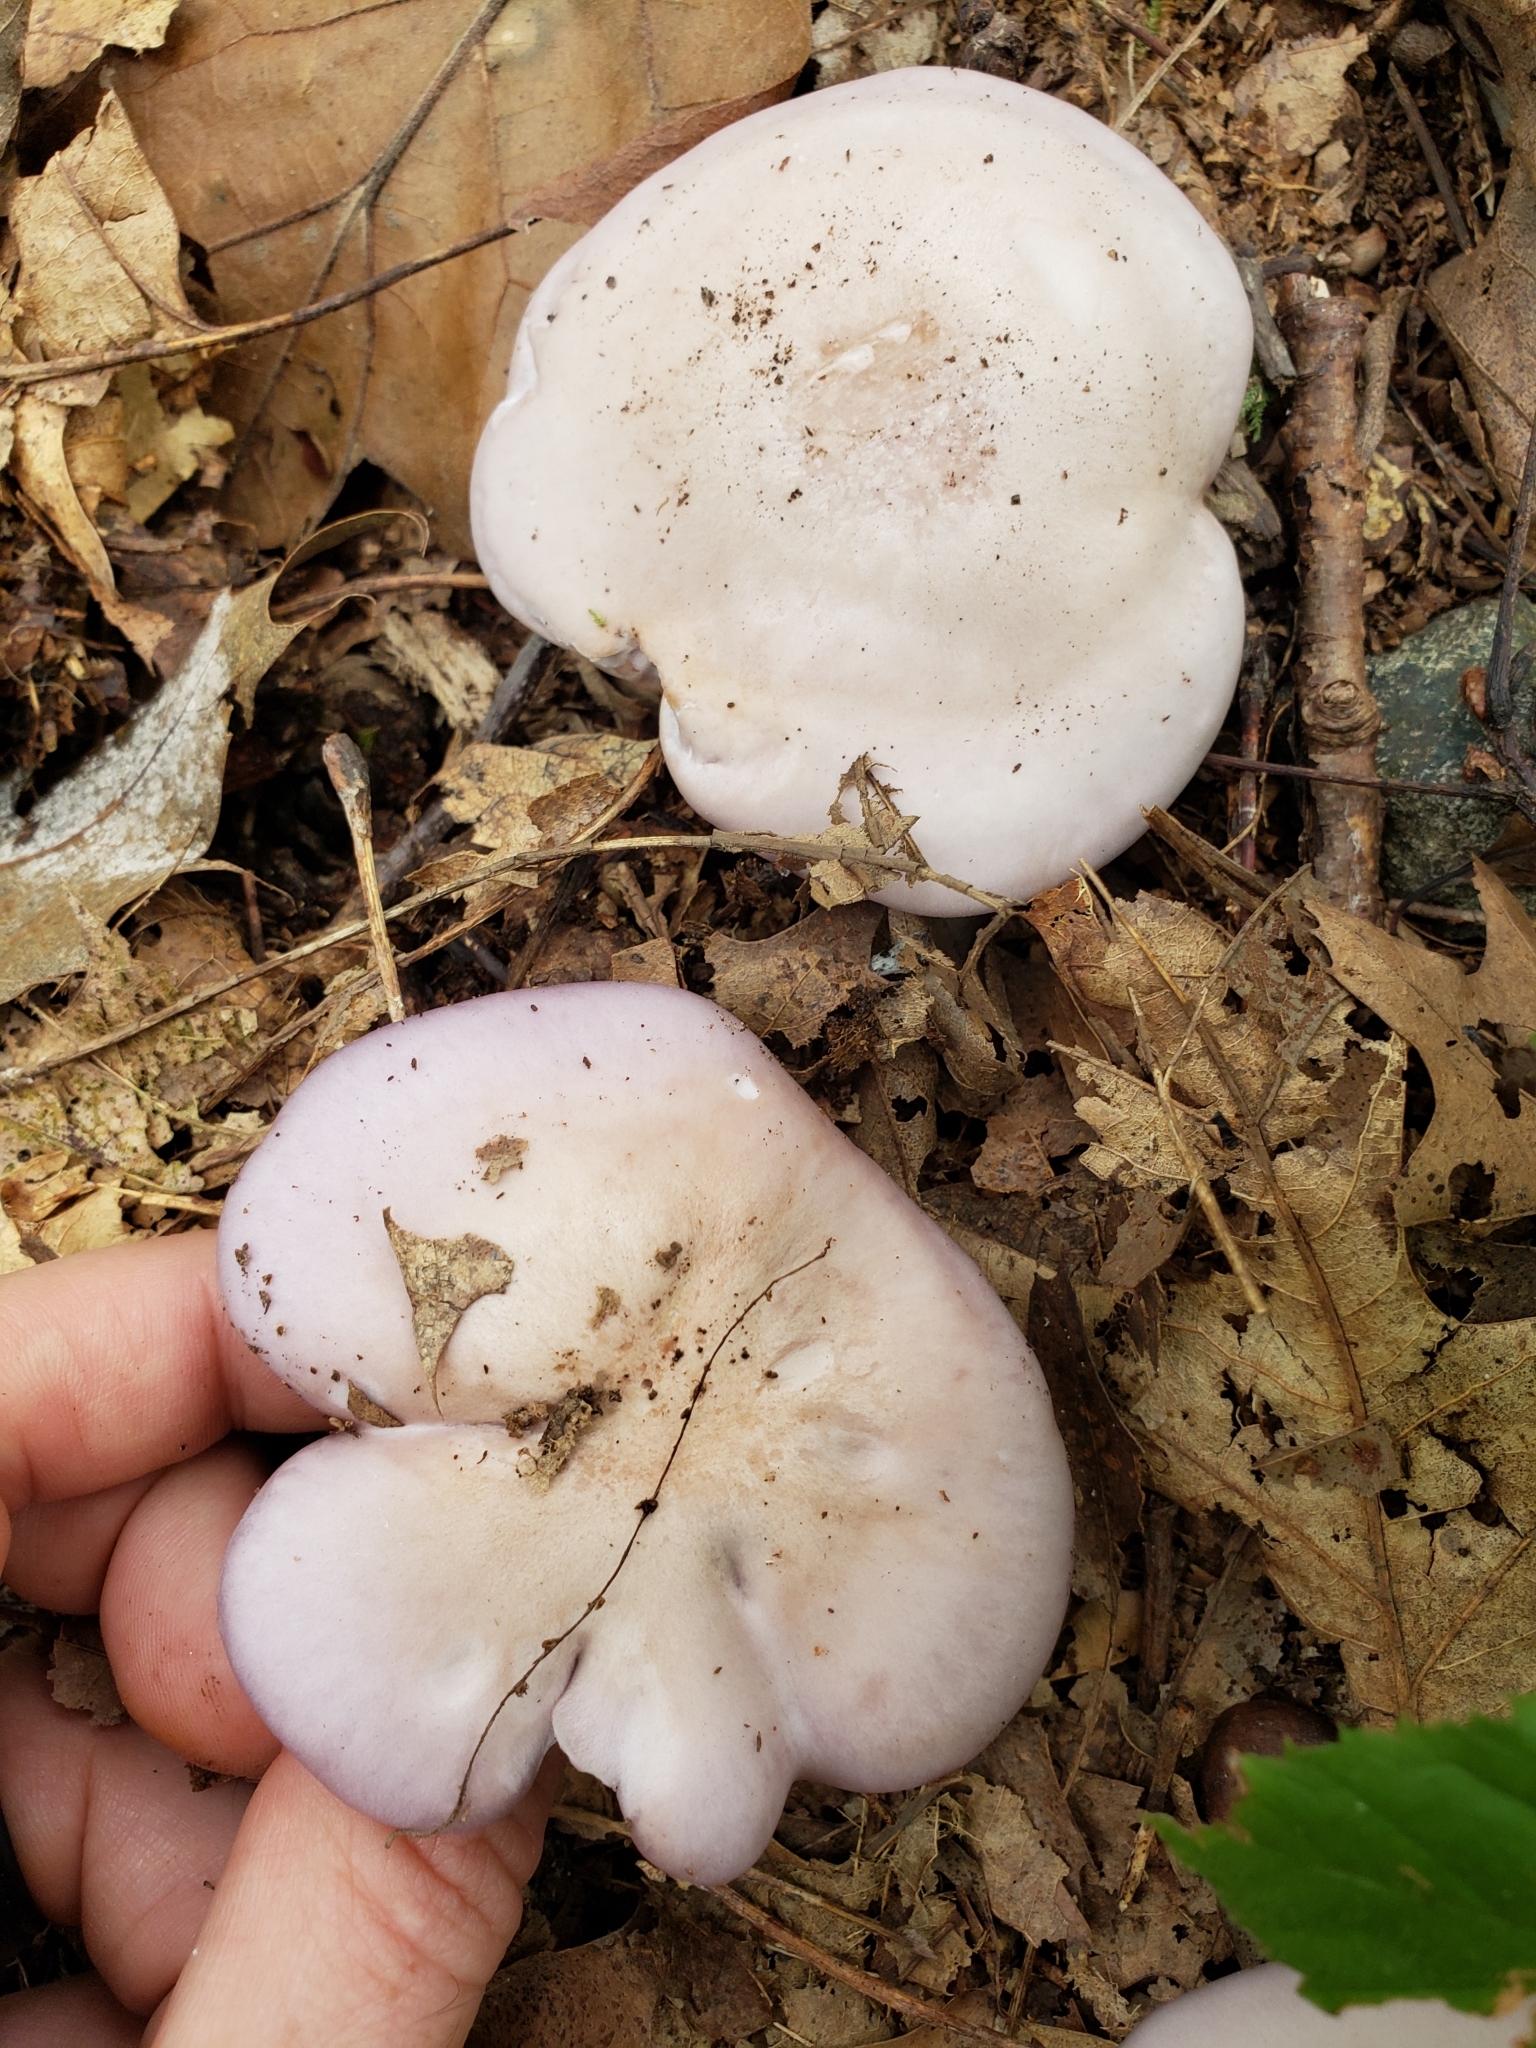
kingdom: Fungi
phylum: Basidiomycota
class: Agaricomycetes
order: Agaricales
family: Tricholomataceae
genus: Collybia
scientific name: Collybia
